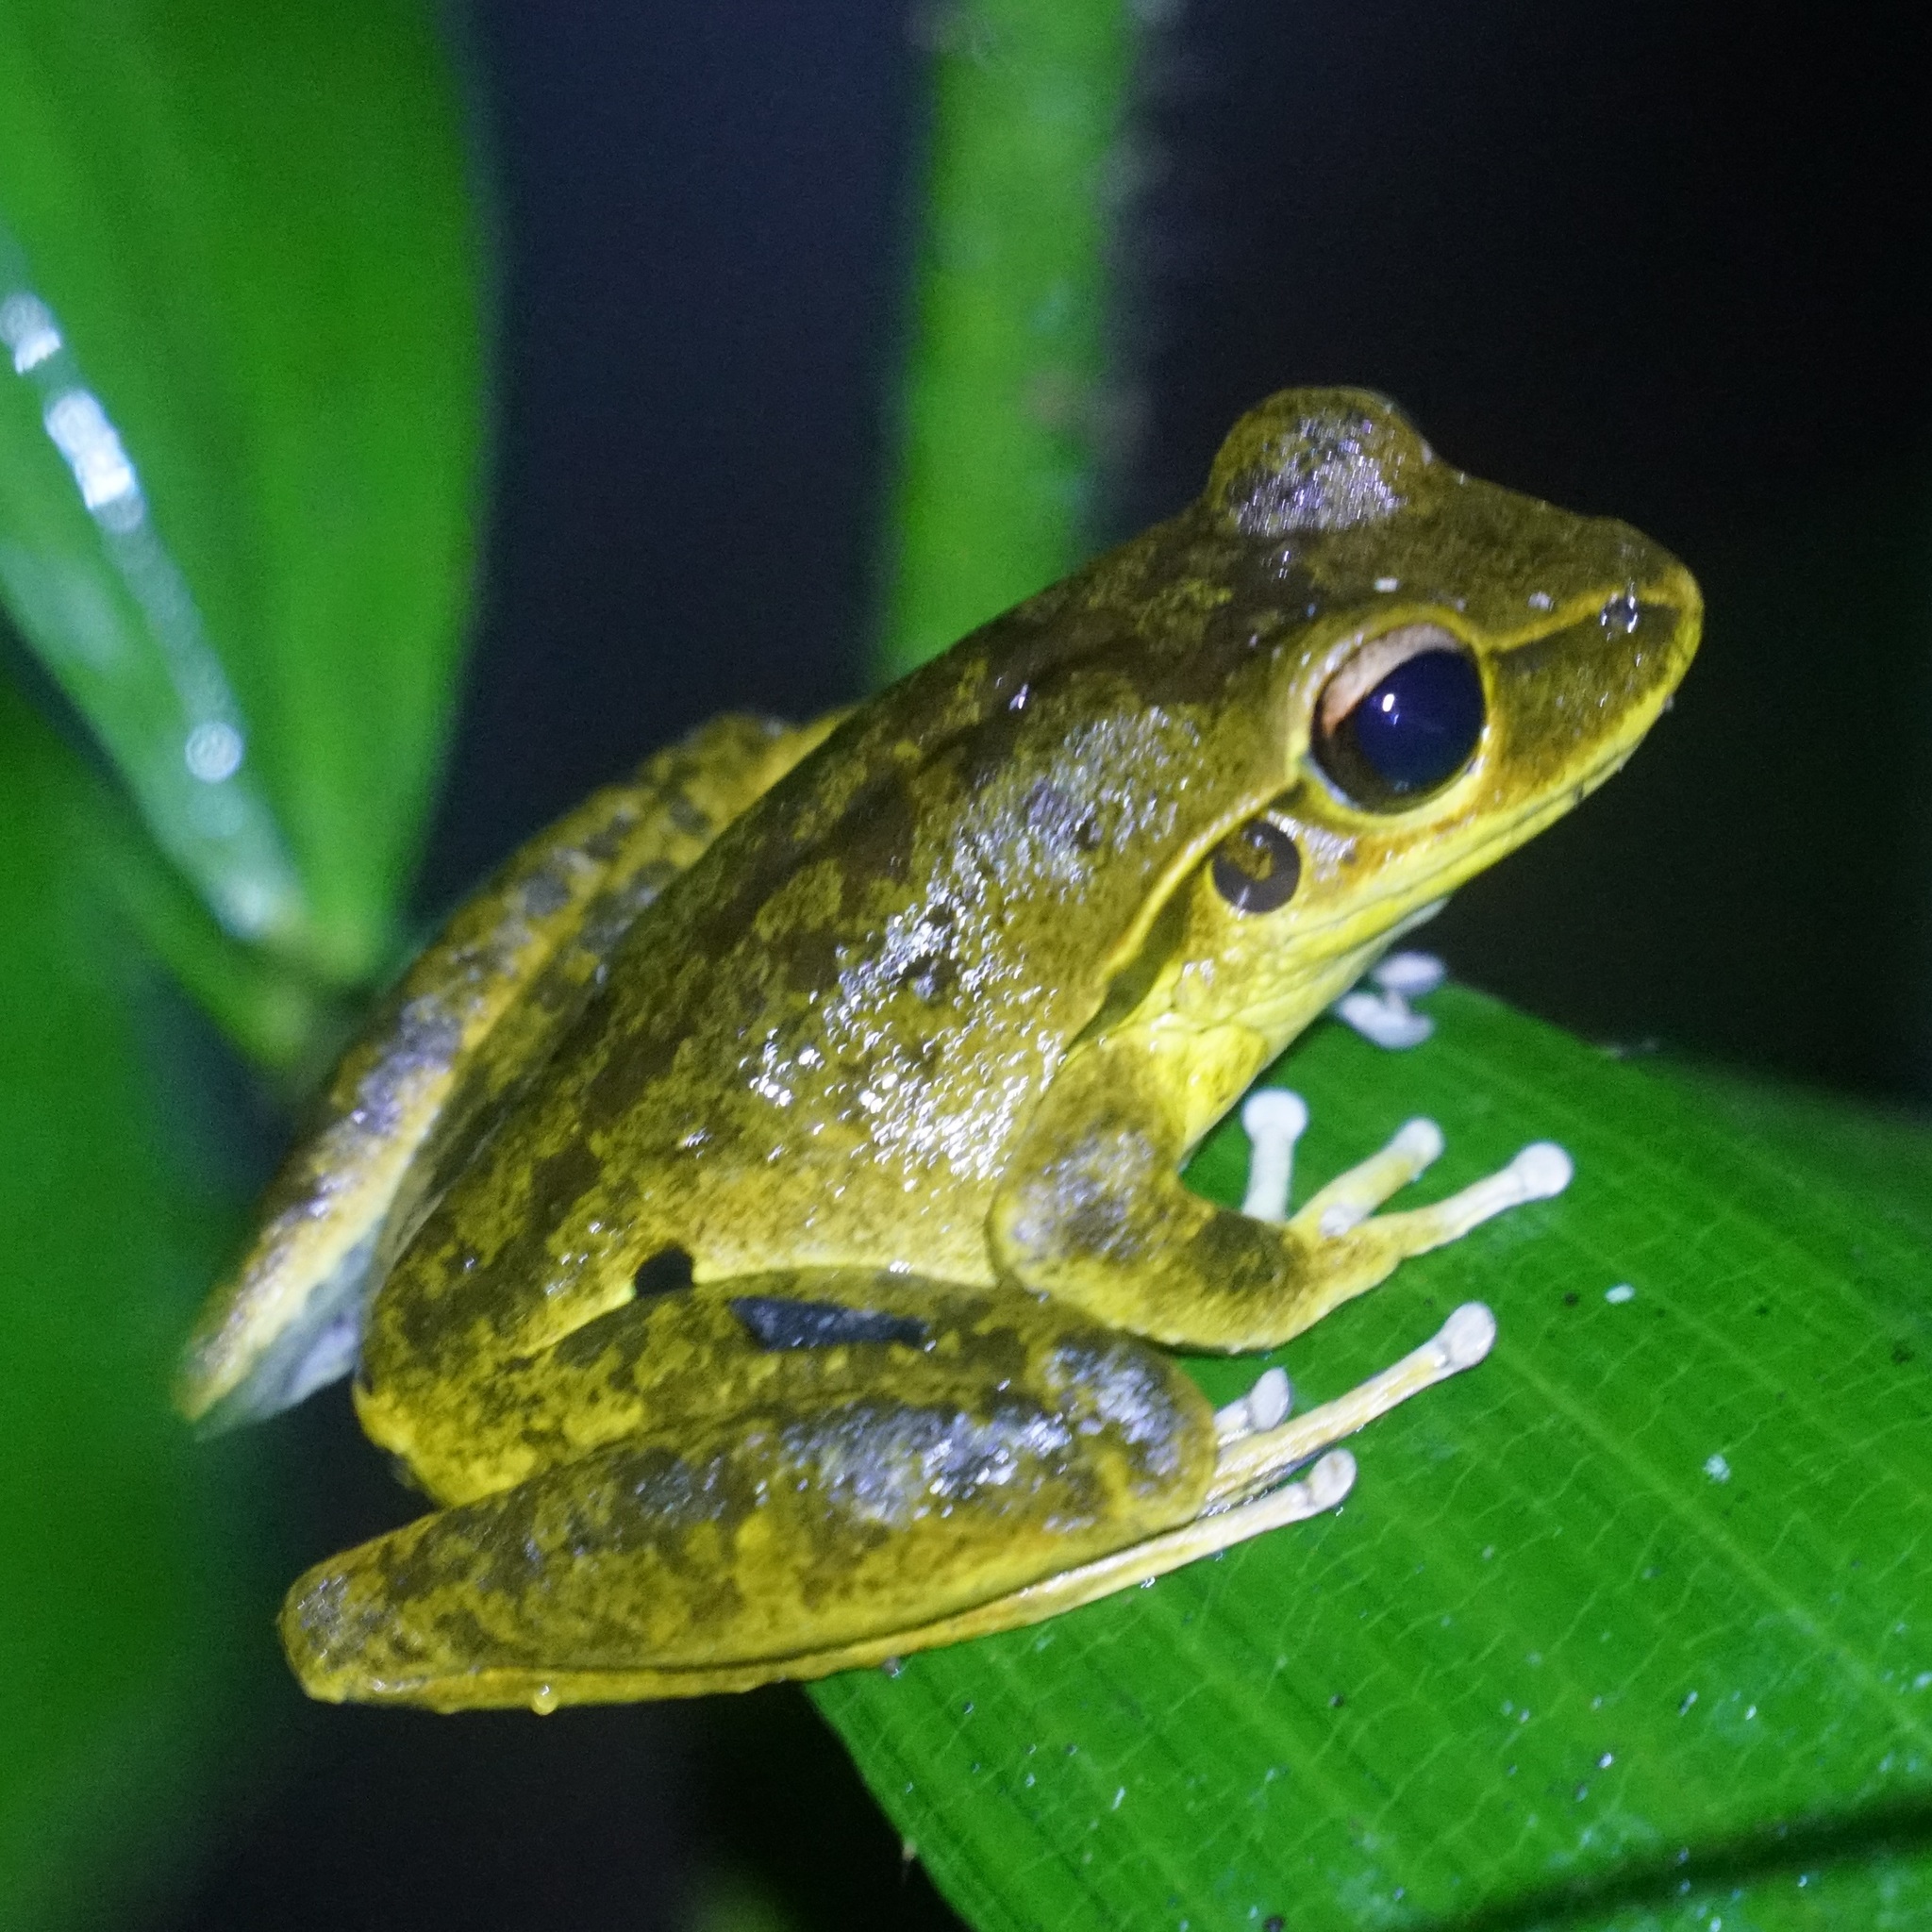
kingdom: Animalia
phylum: Chordata
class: Amphibia
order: Anura
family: Hylidae
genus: Ranoidea
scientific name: Ranoidea
